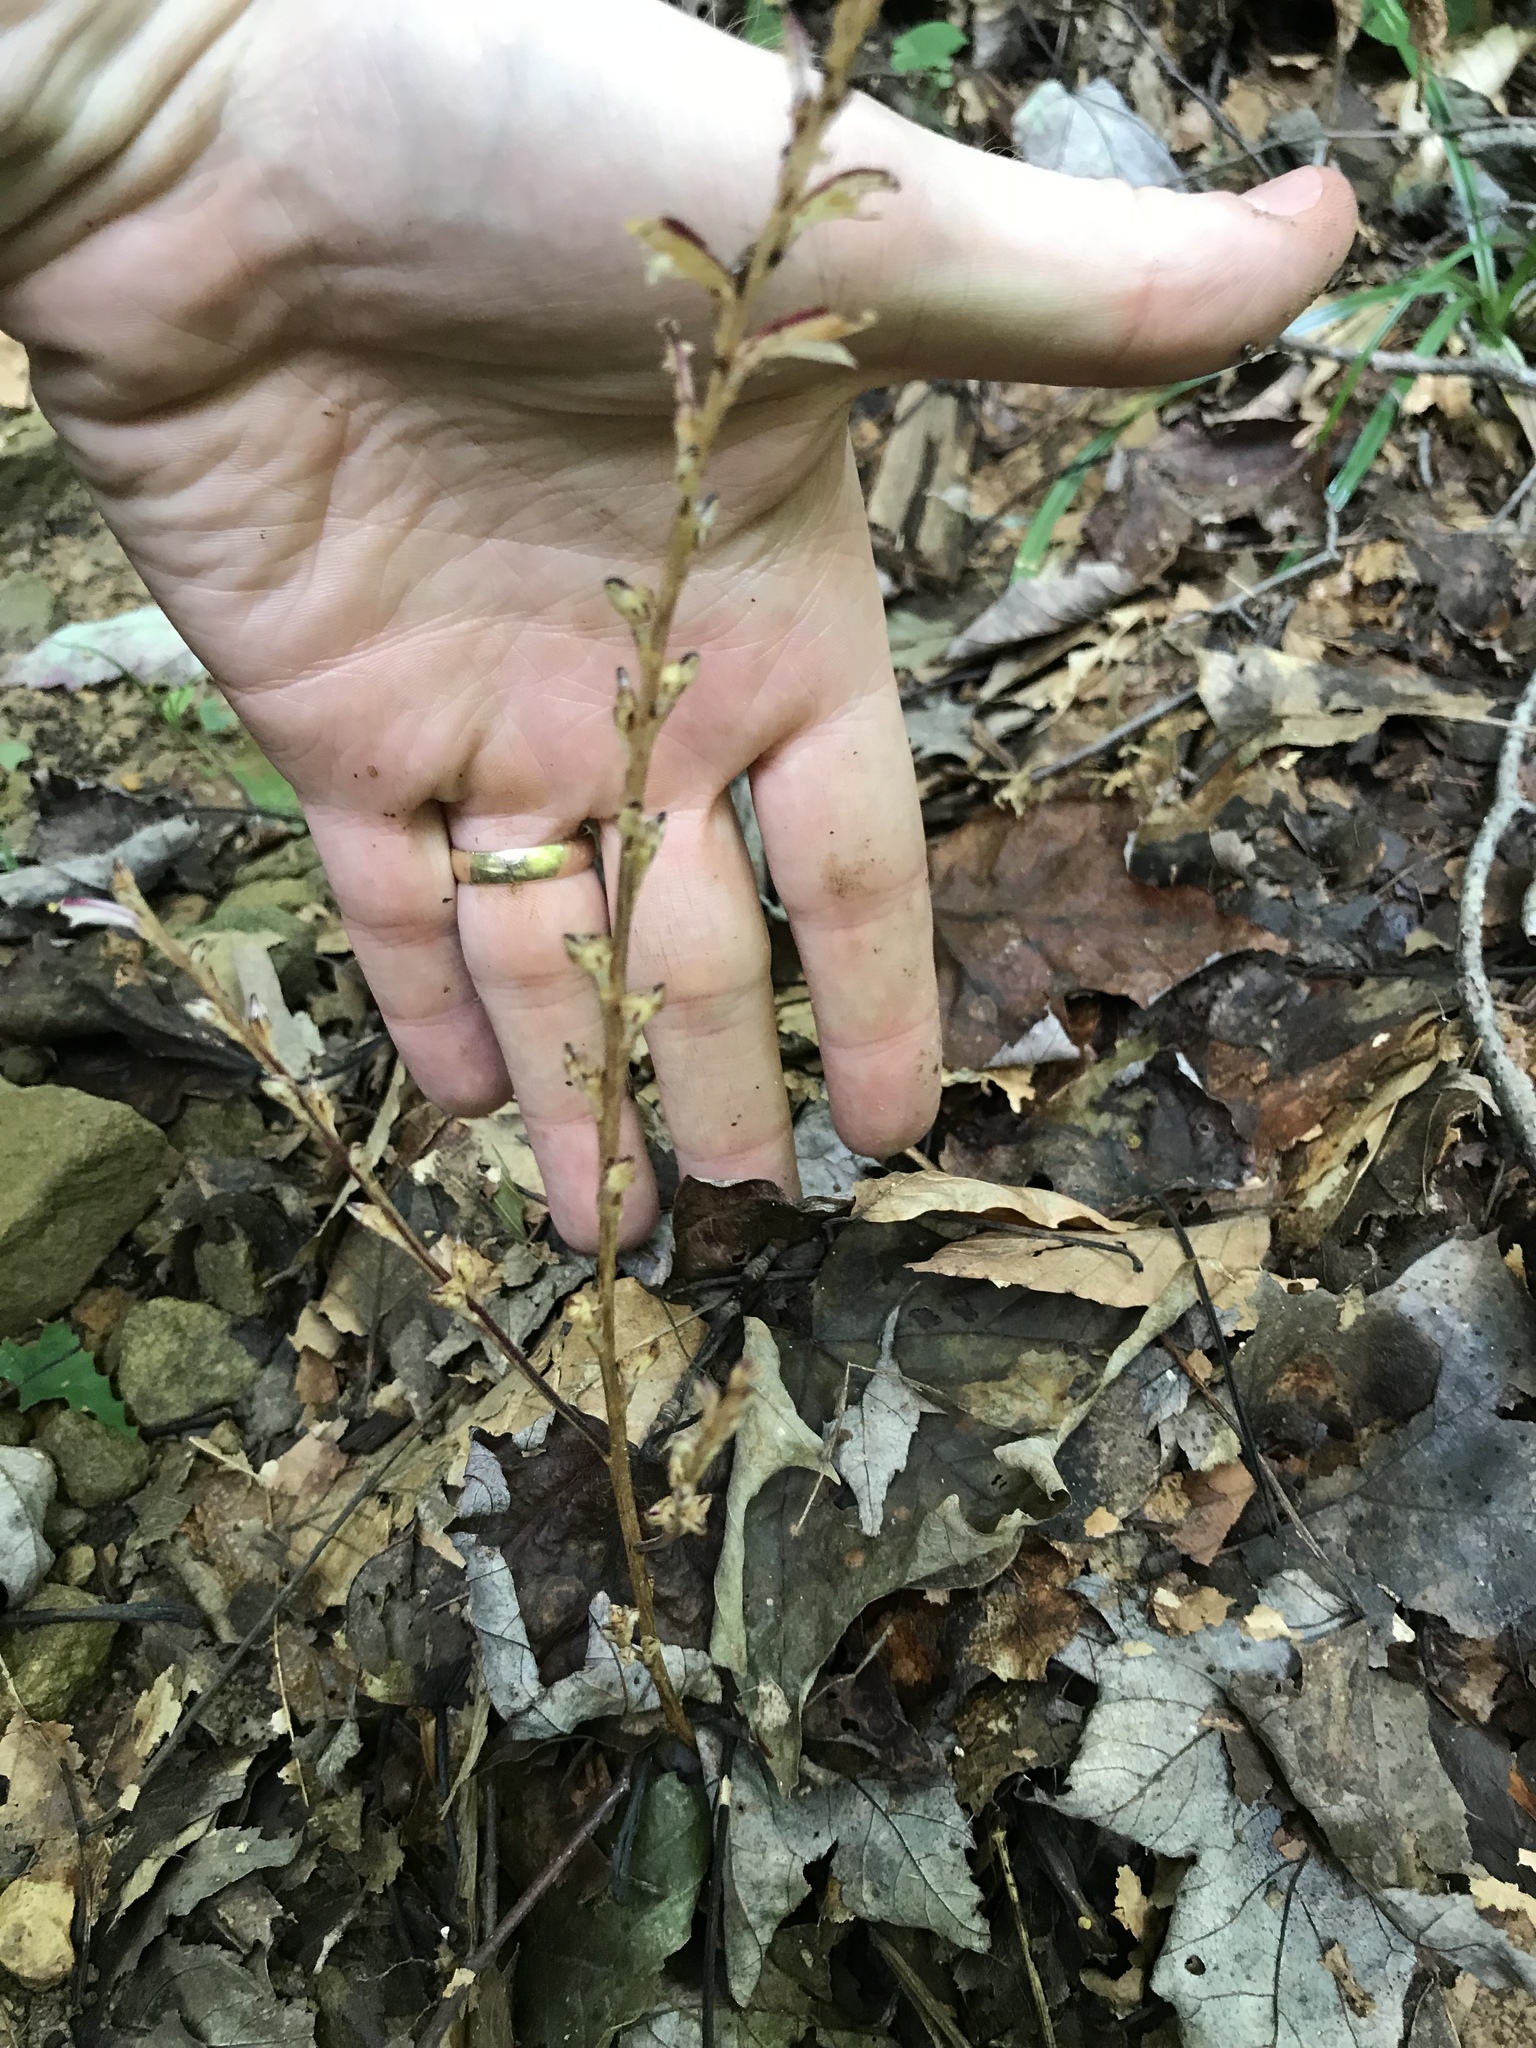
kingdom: Plantae
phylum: Tracheophyta
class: Magnoliopsida
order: Lamiales
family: Orobanchaceae
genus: Epifagus
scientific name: Epifagus virginiana
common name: Beechdrops
